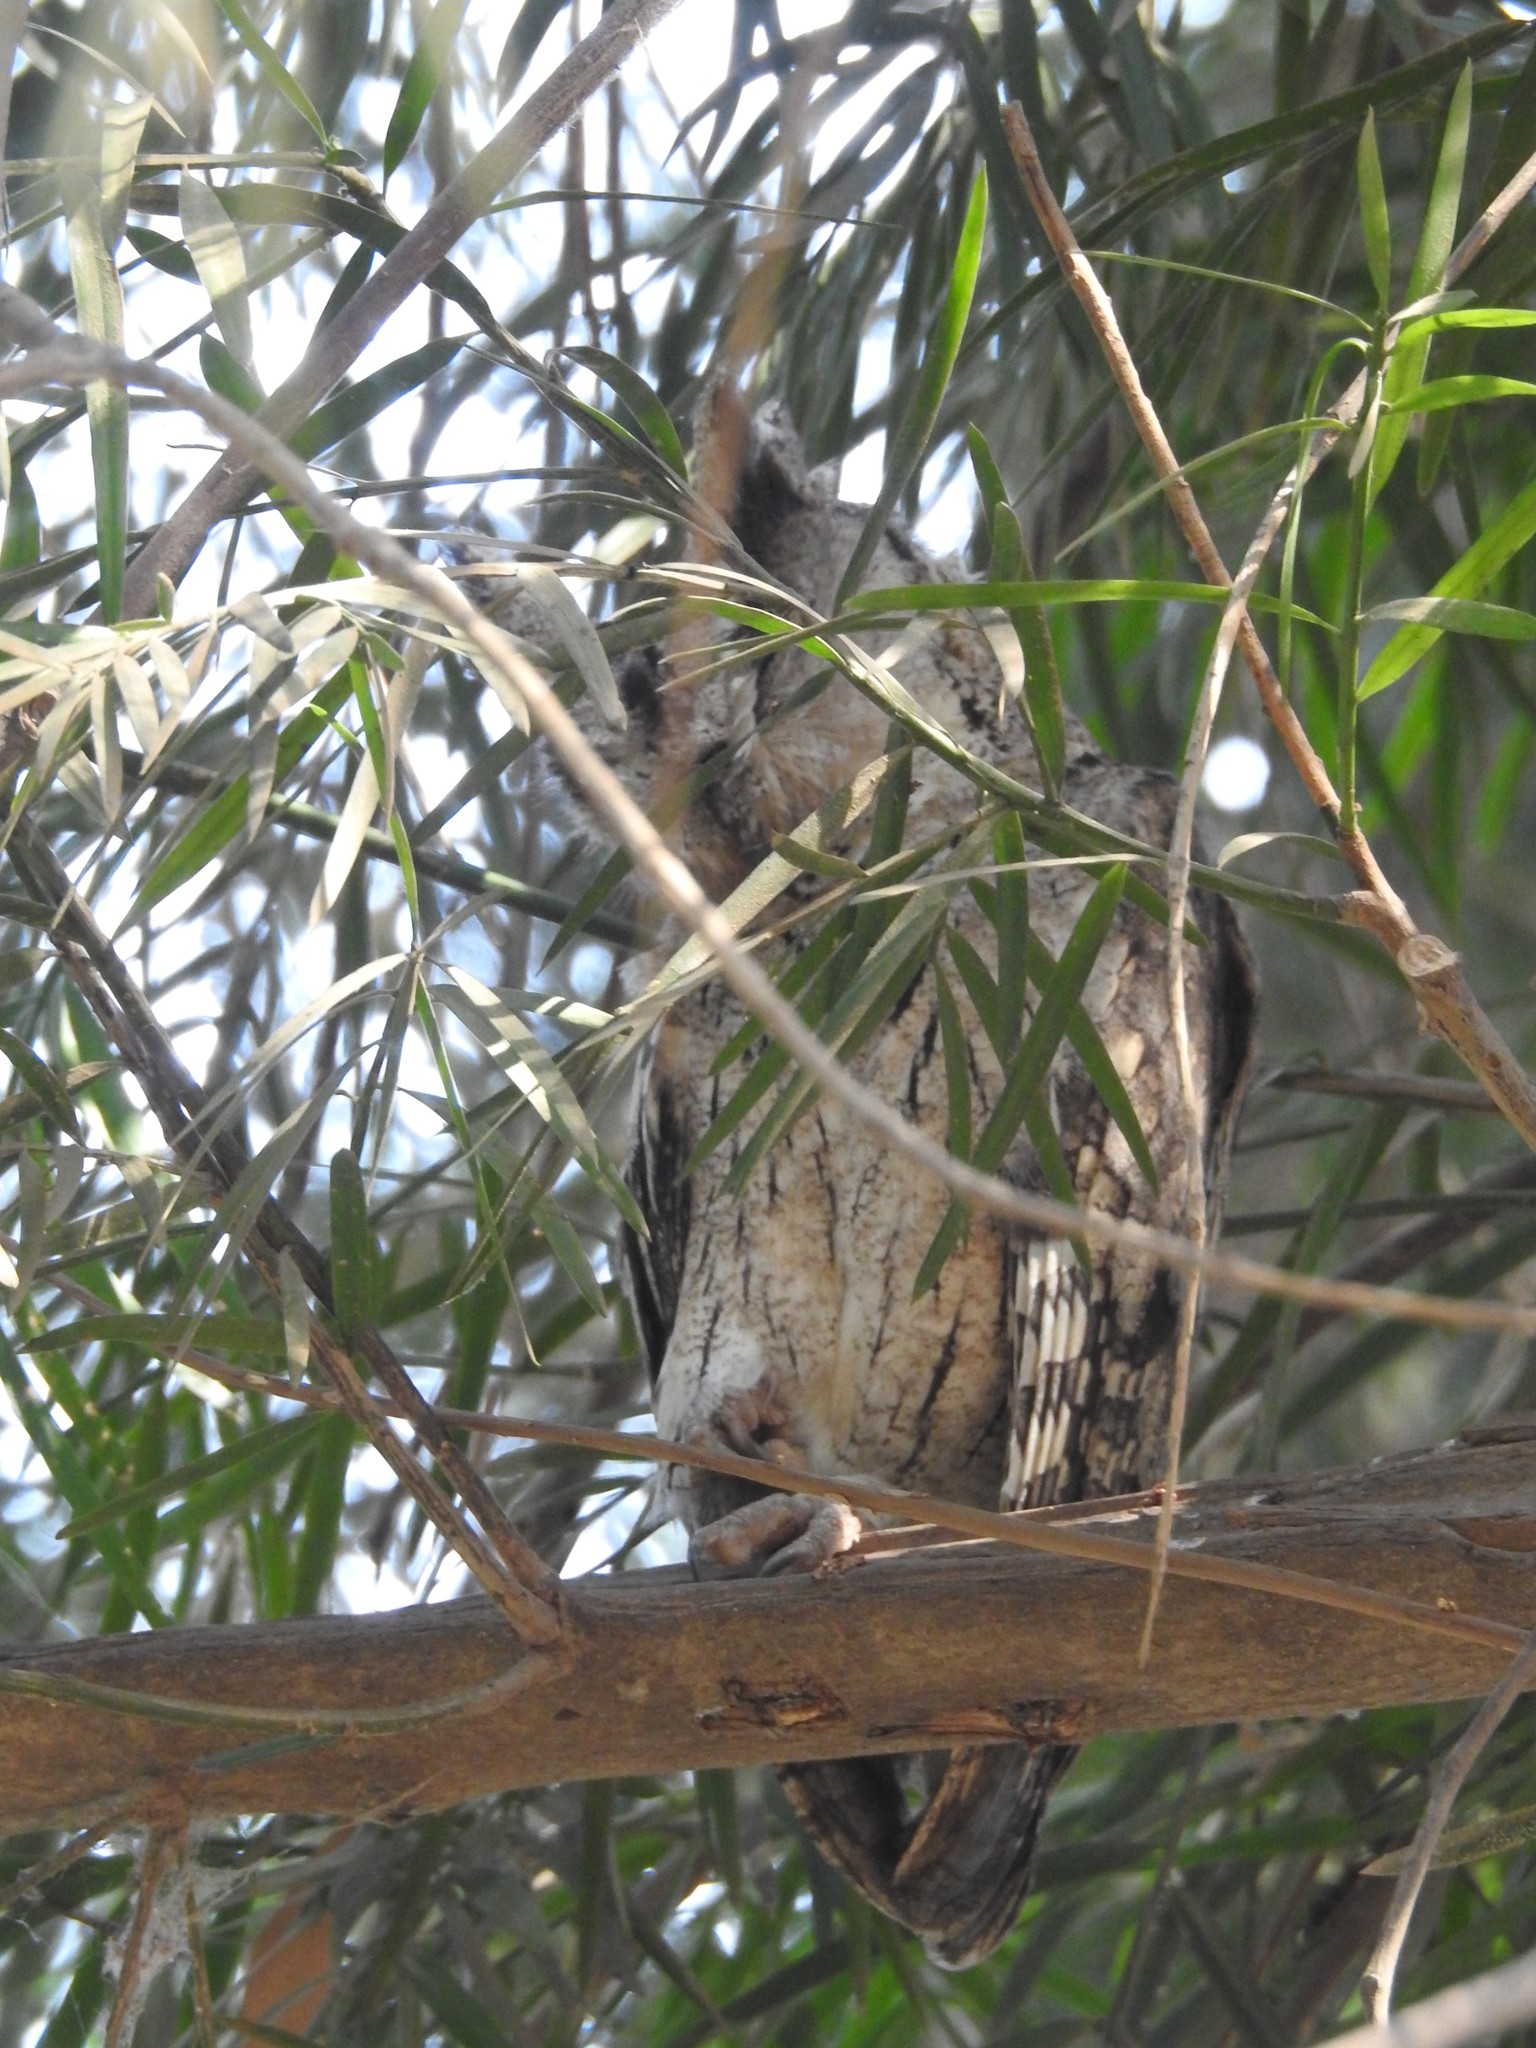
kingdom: Animalia
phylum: Chordata
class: Aves
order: Strigiformes
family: Strigidae
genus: Otus
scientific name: Otus bakkamoena
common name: Indian scops owl
